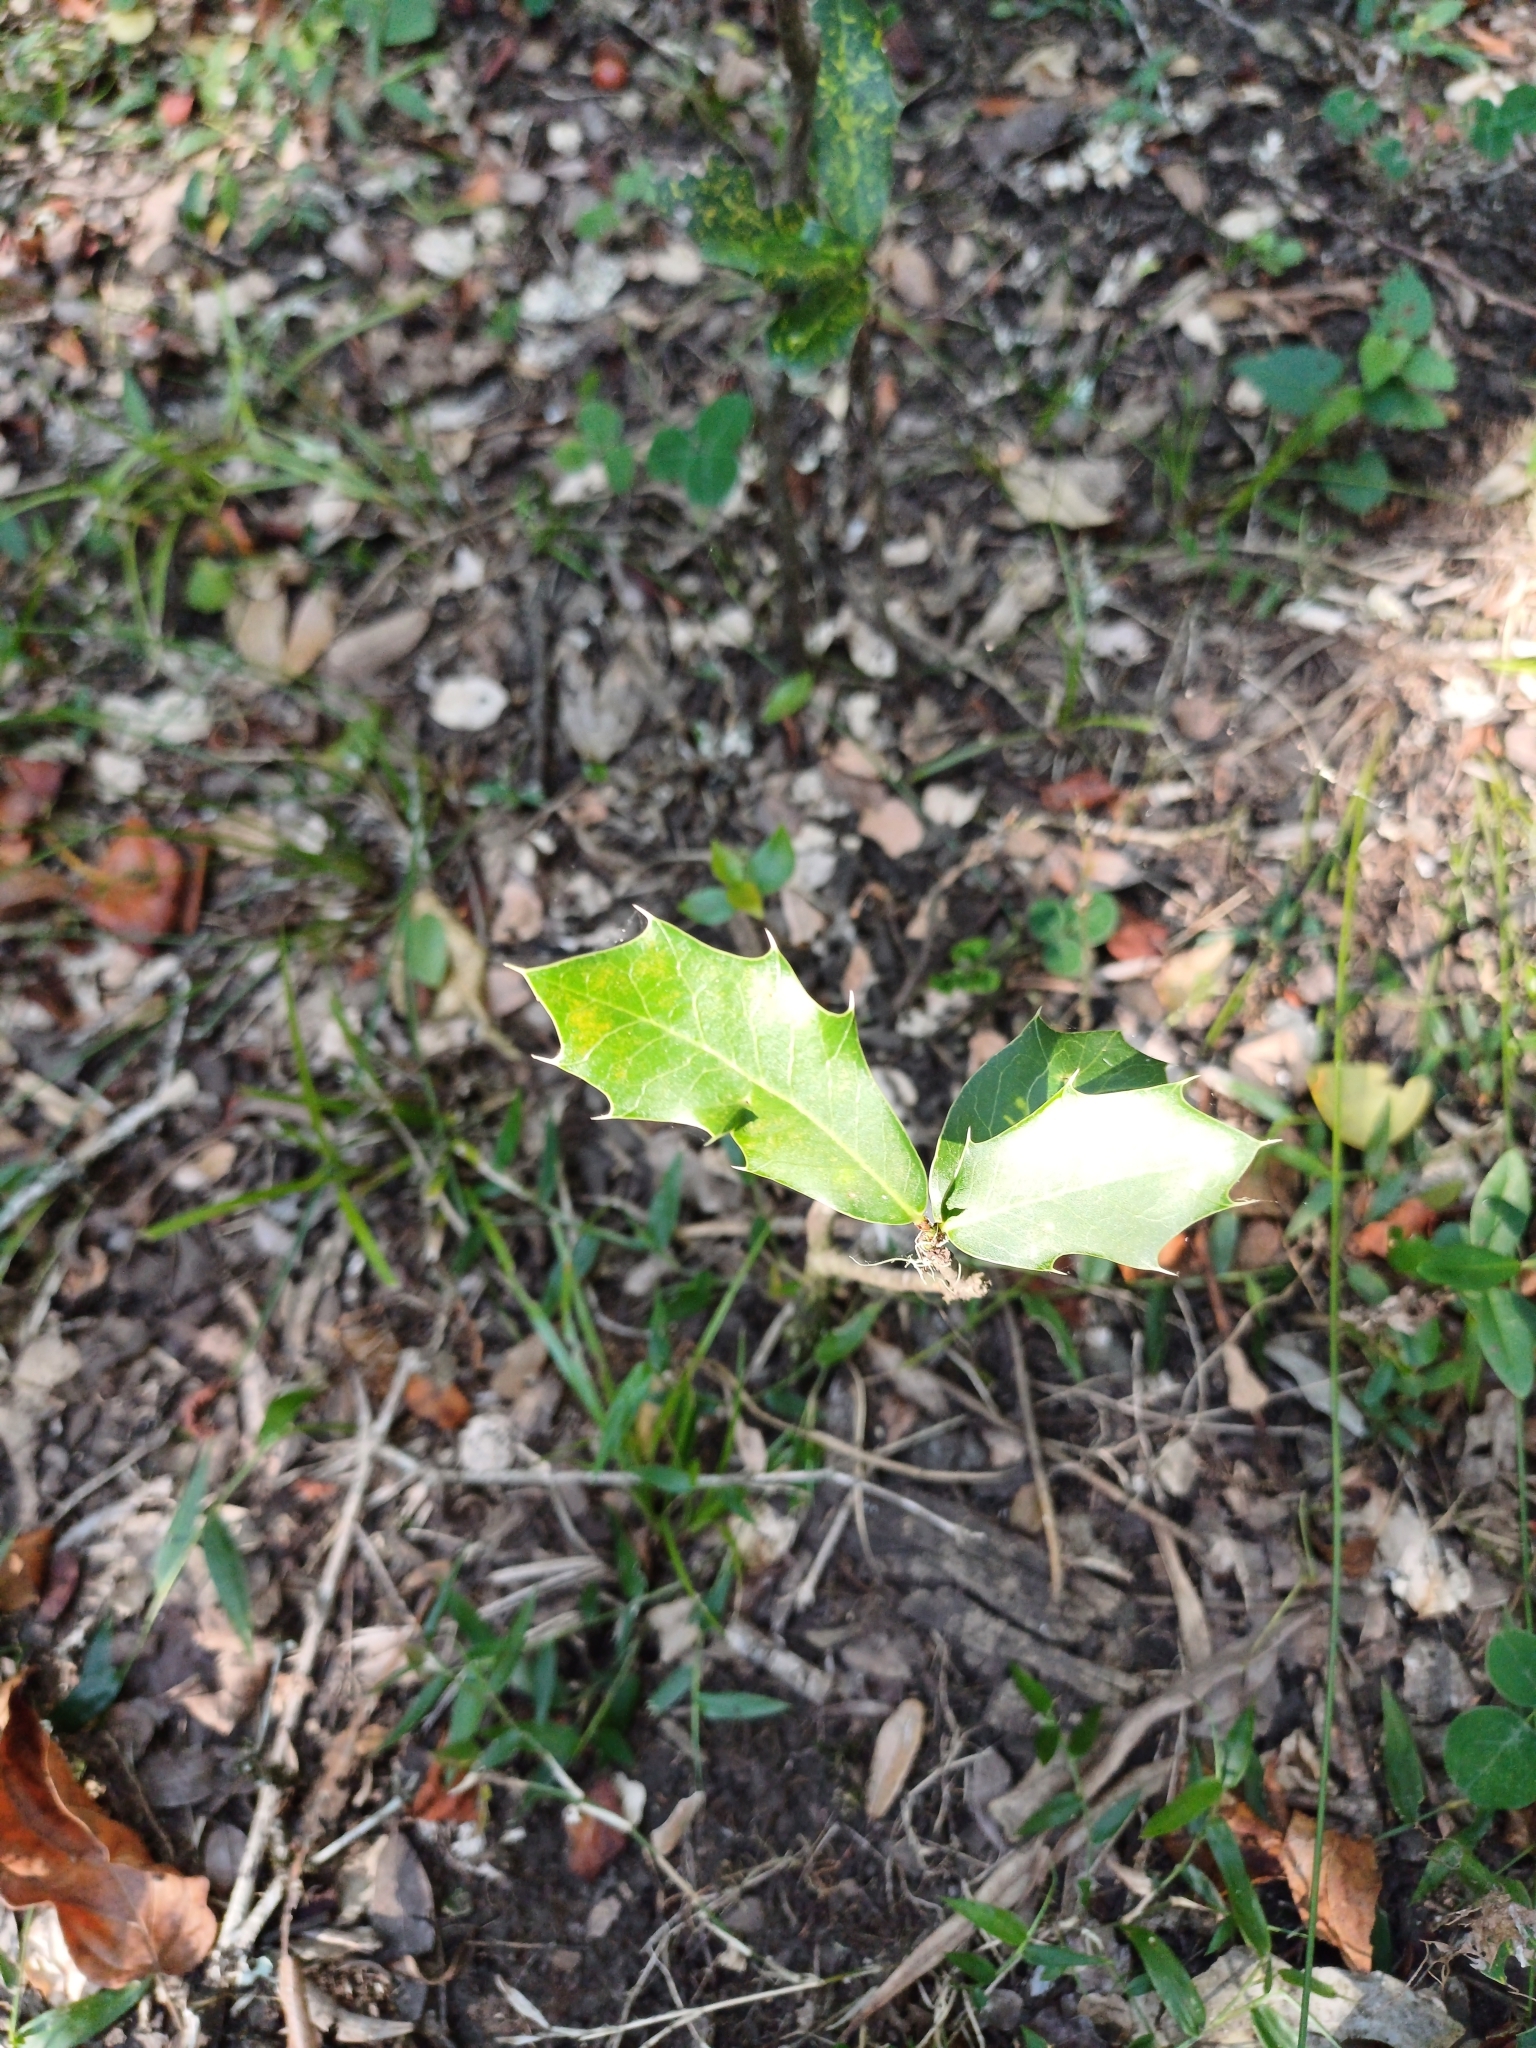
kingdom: Plantae
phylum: Tracheophyta
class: Magnoliopsida
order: Celastrales
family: Celastraceae
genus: Monteverdia
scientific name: Monteverdia
